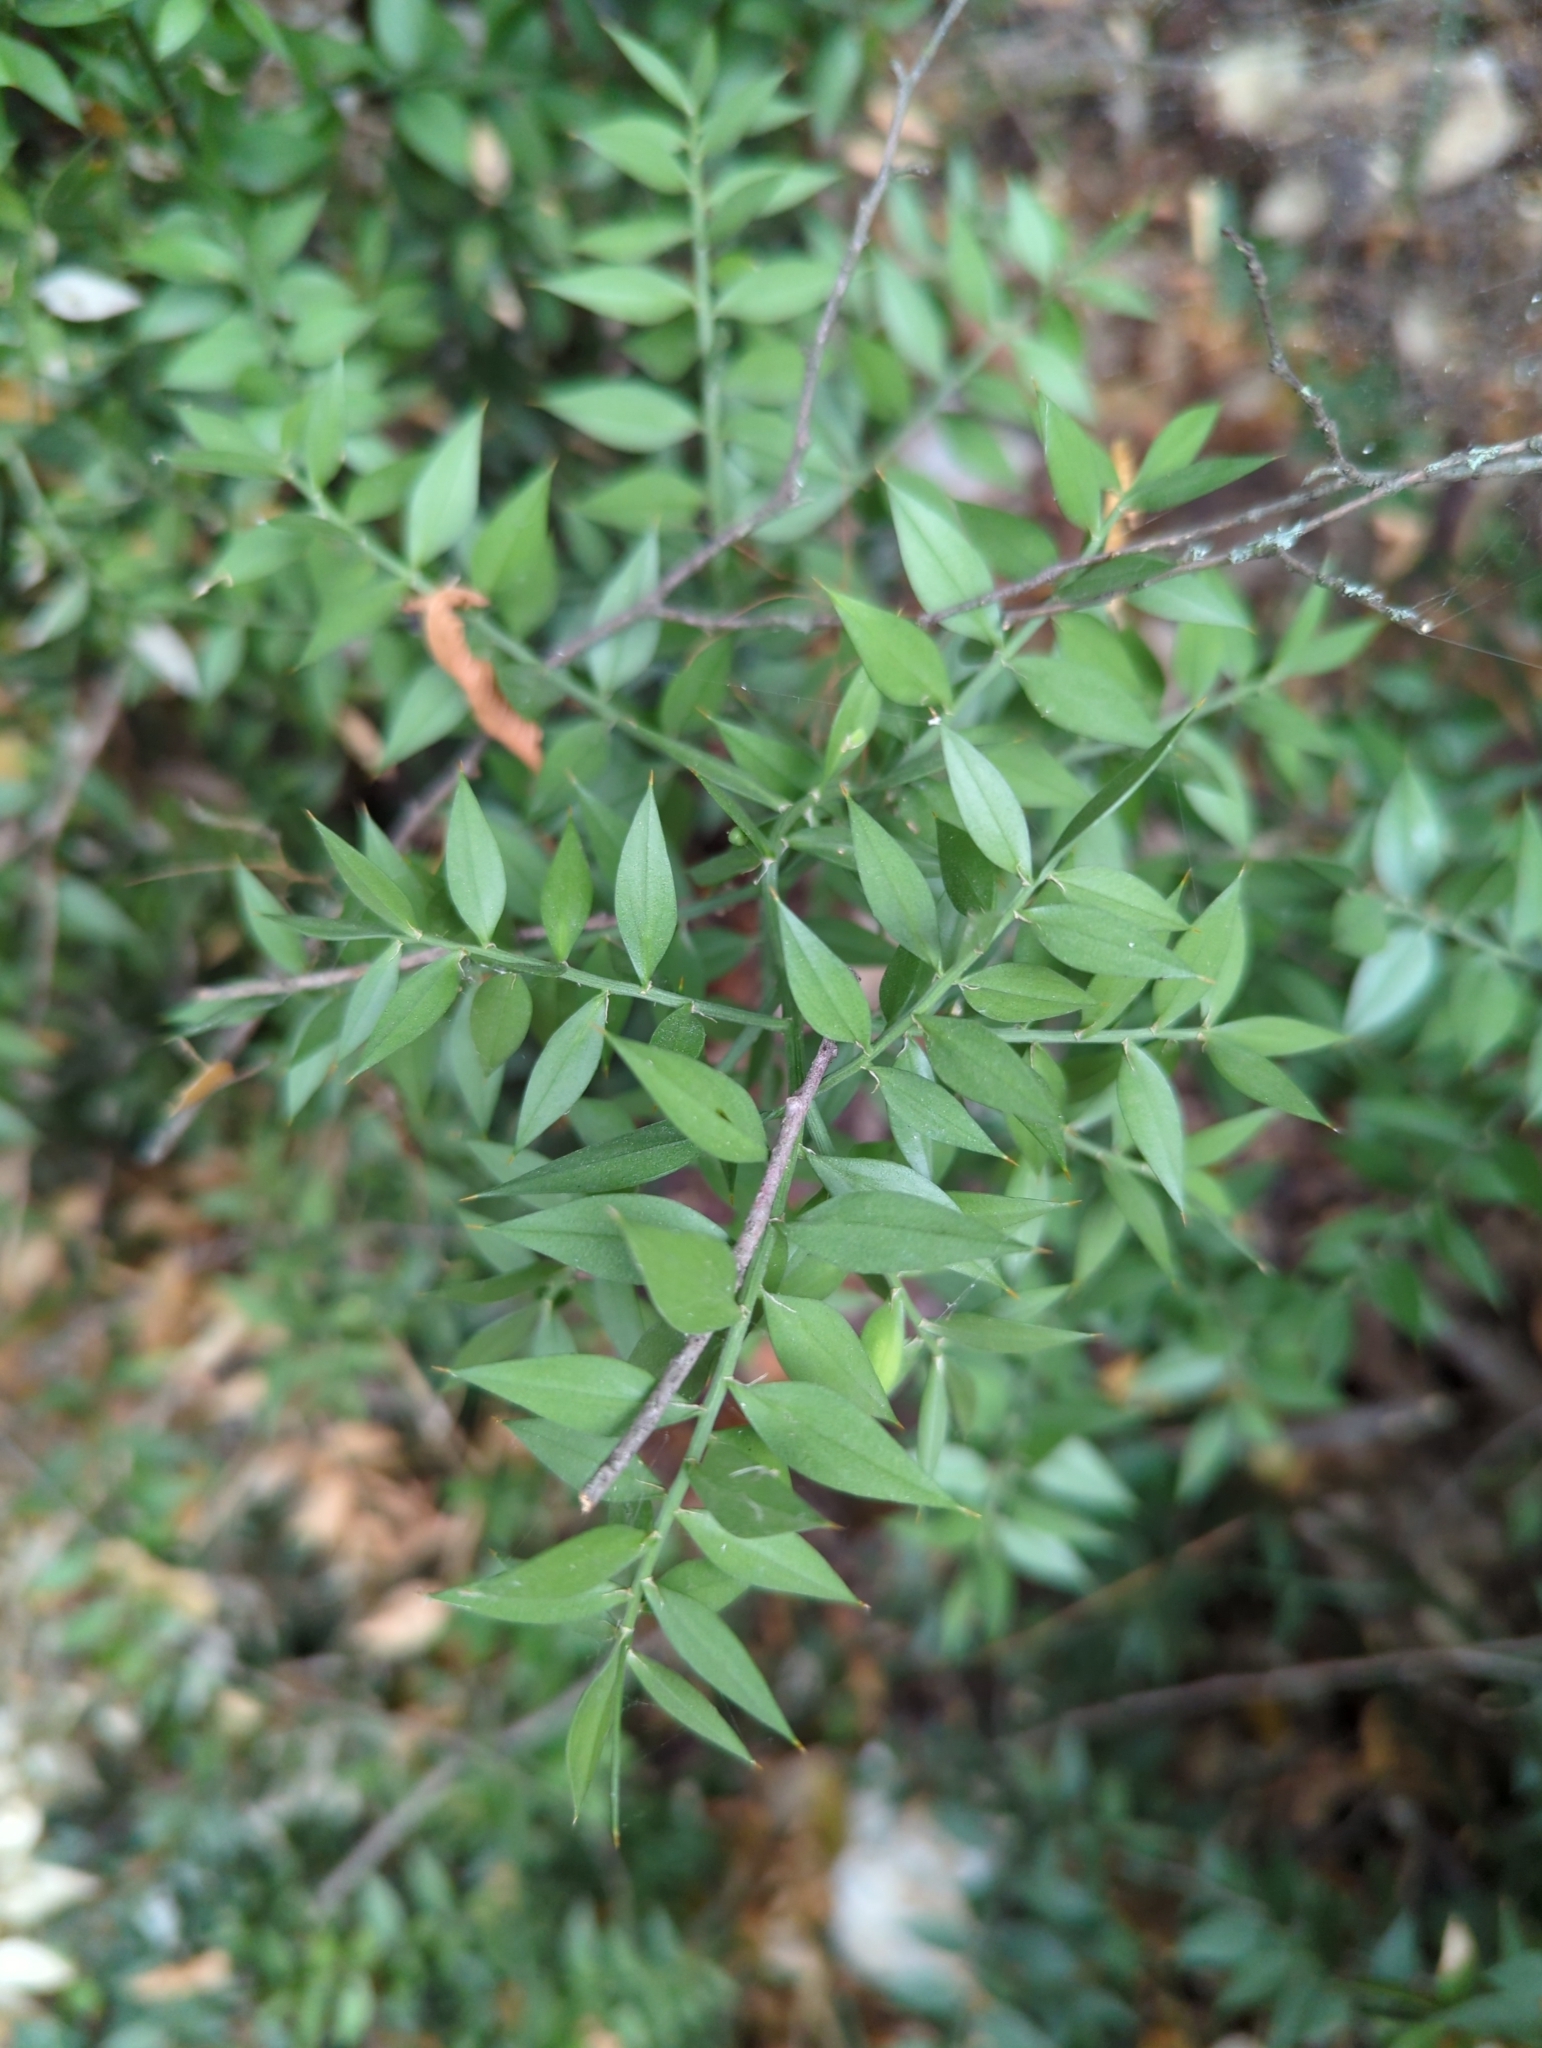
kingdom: Plantae
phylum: Tracheophyta
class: Liliopsida
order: Asparagales
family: Asparagaceae
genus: Ruscus
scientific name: Ruscus aculeatus
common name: Butcher's-broom
